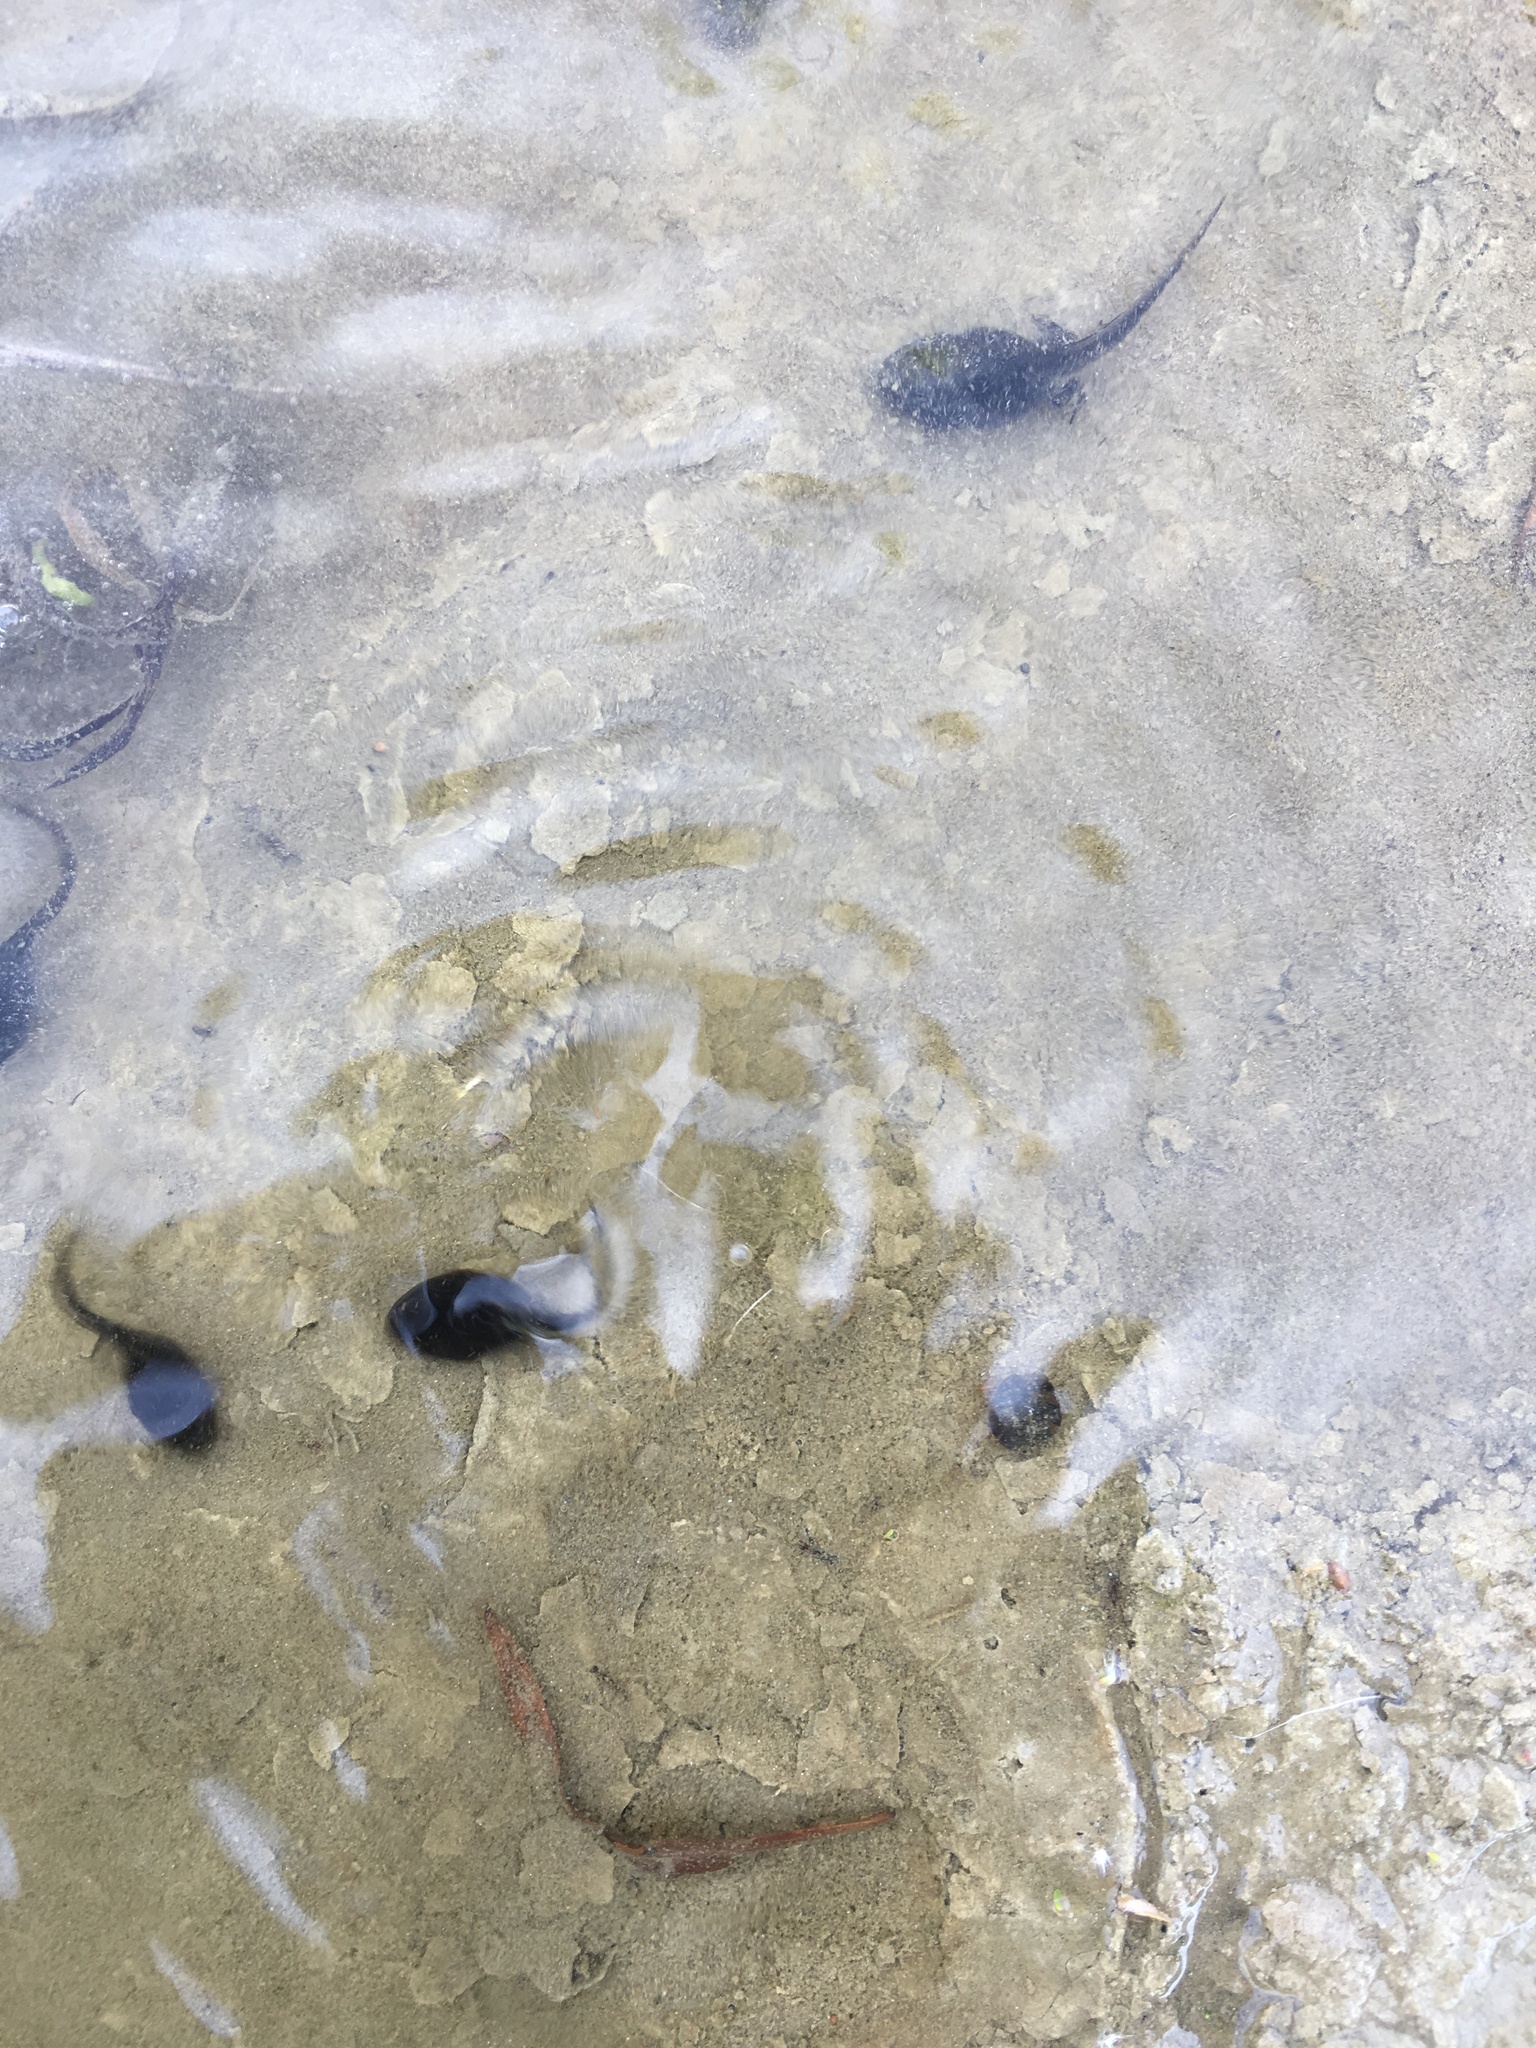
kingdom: Animalia
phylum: Chordata
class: Amphibia
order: Anura
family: Bufonidae
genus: Anaxyrus
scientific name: Anaxyrus boreas
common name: Western toad
